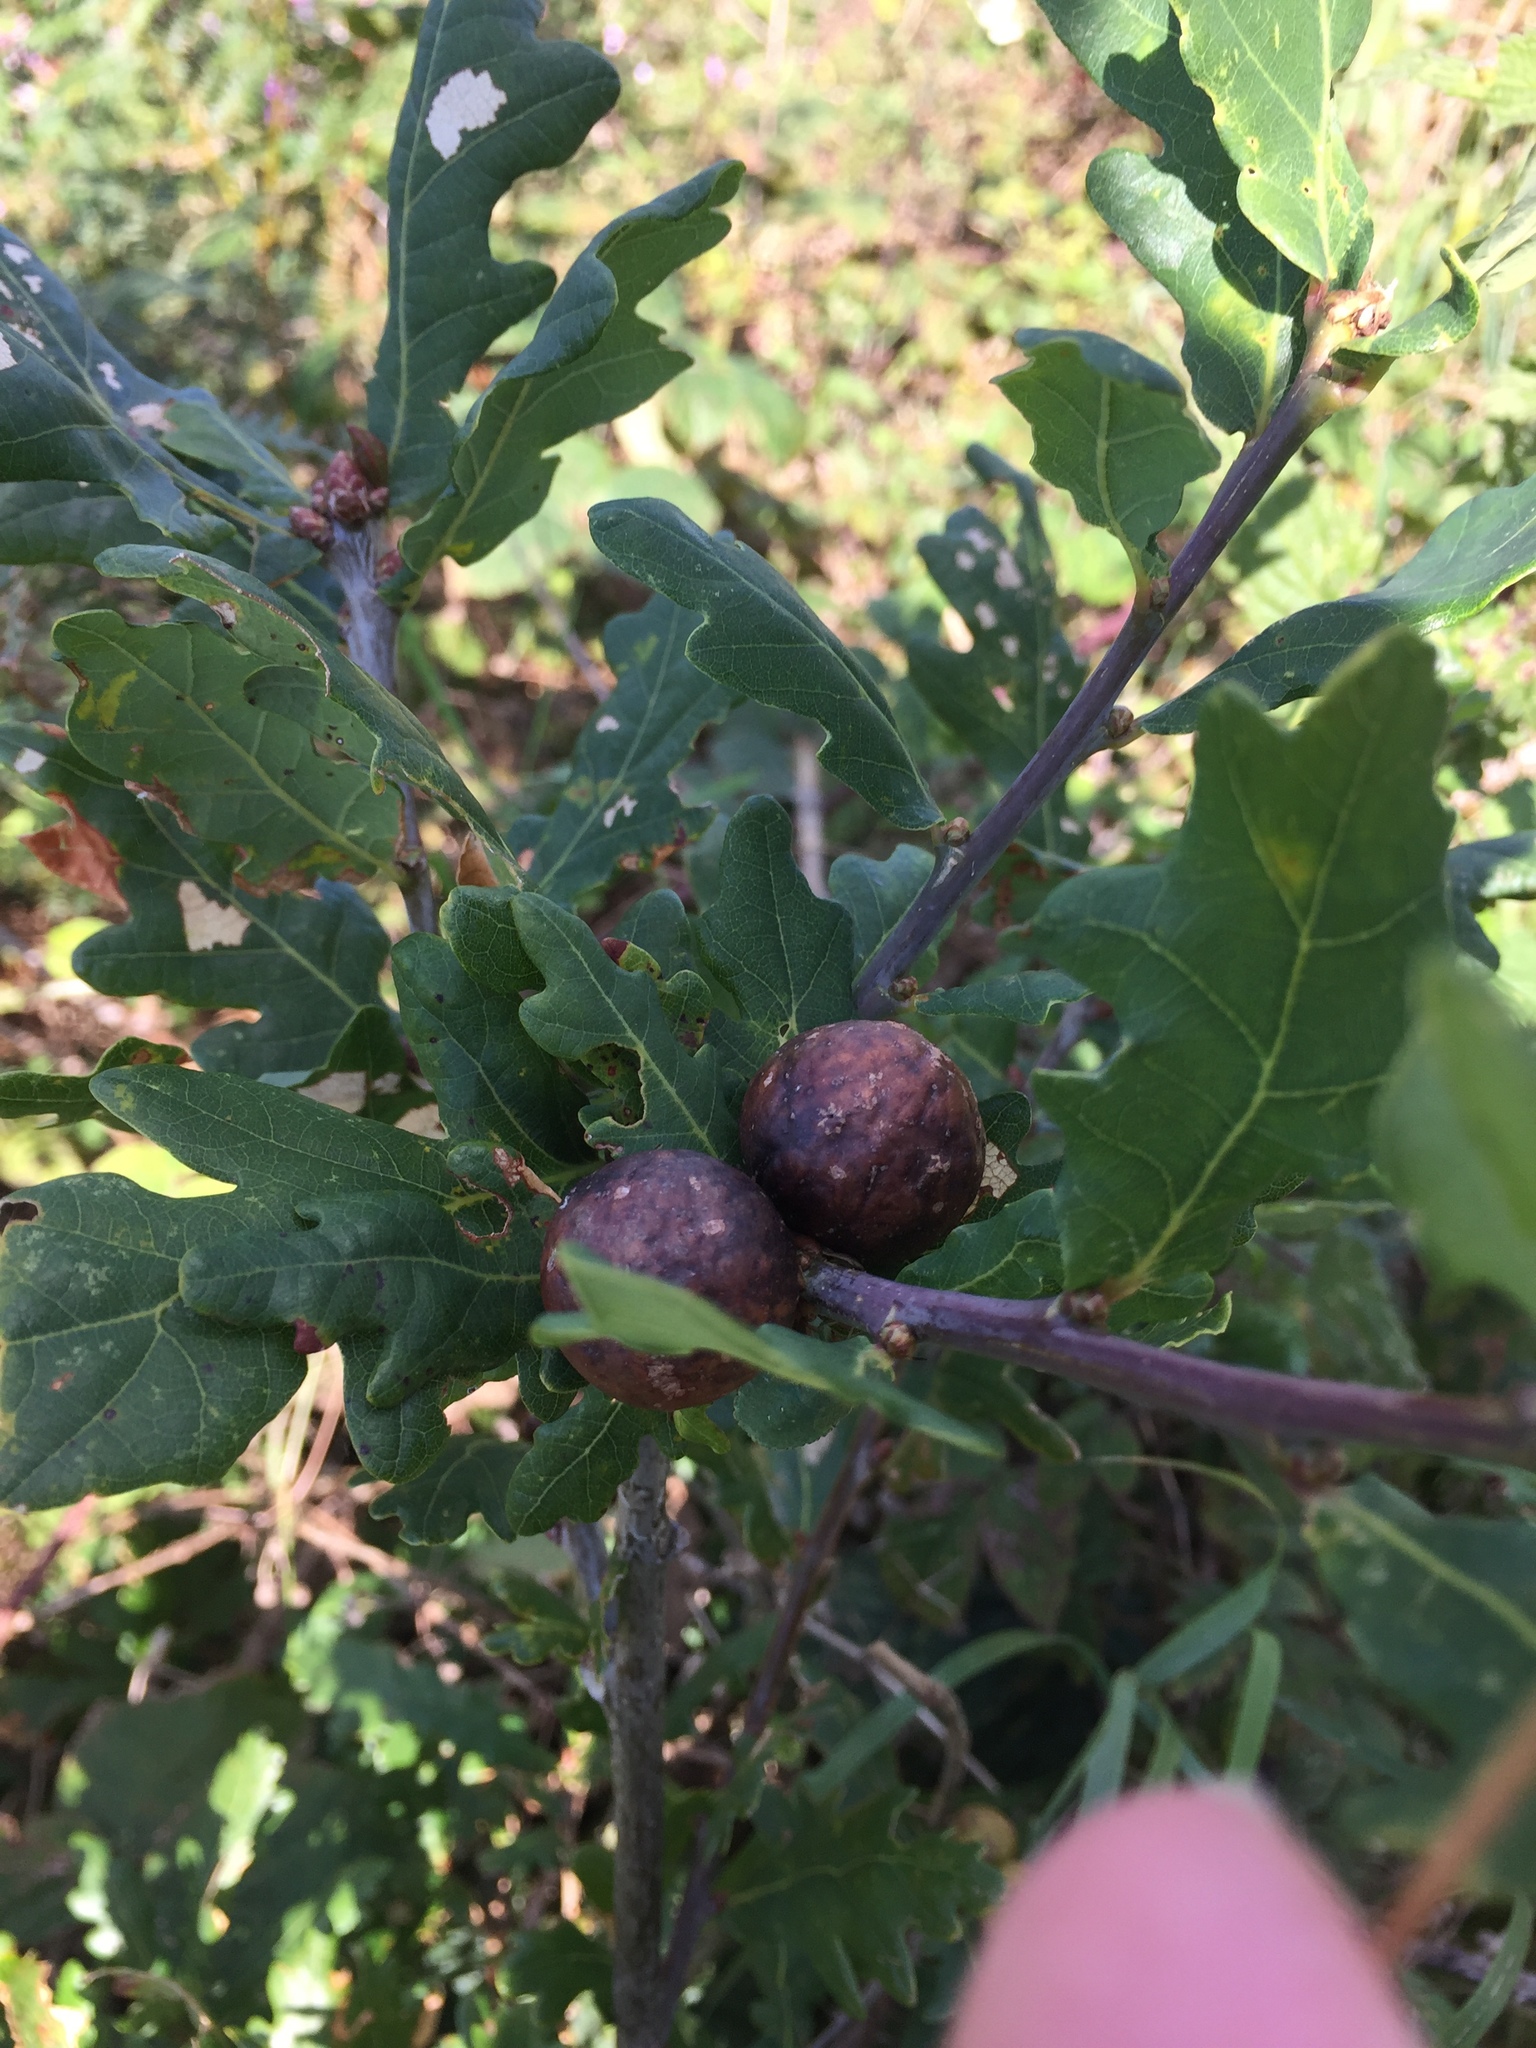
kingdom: Animalia
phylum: Arthropoda
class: Insecta
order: Hymenoptera
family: Cynipidae
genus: Andricus
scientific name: Andricus kollari
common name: Marble gall
